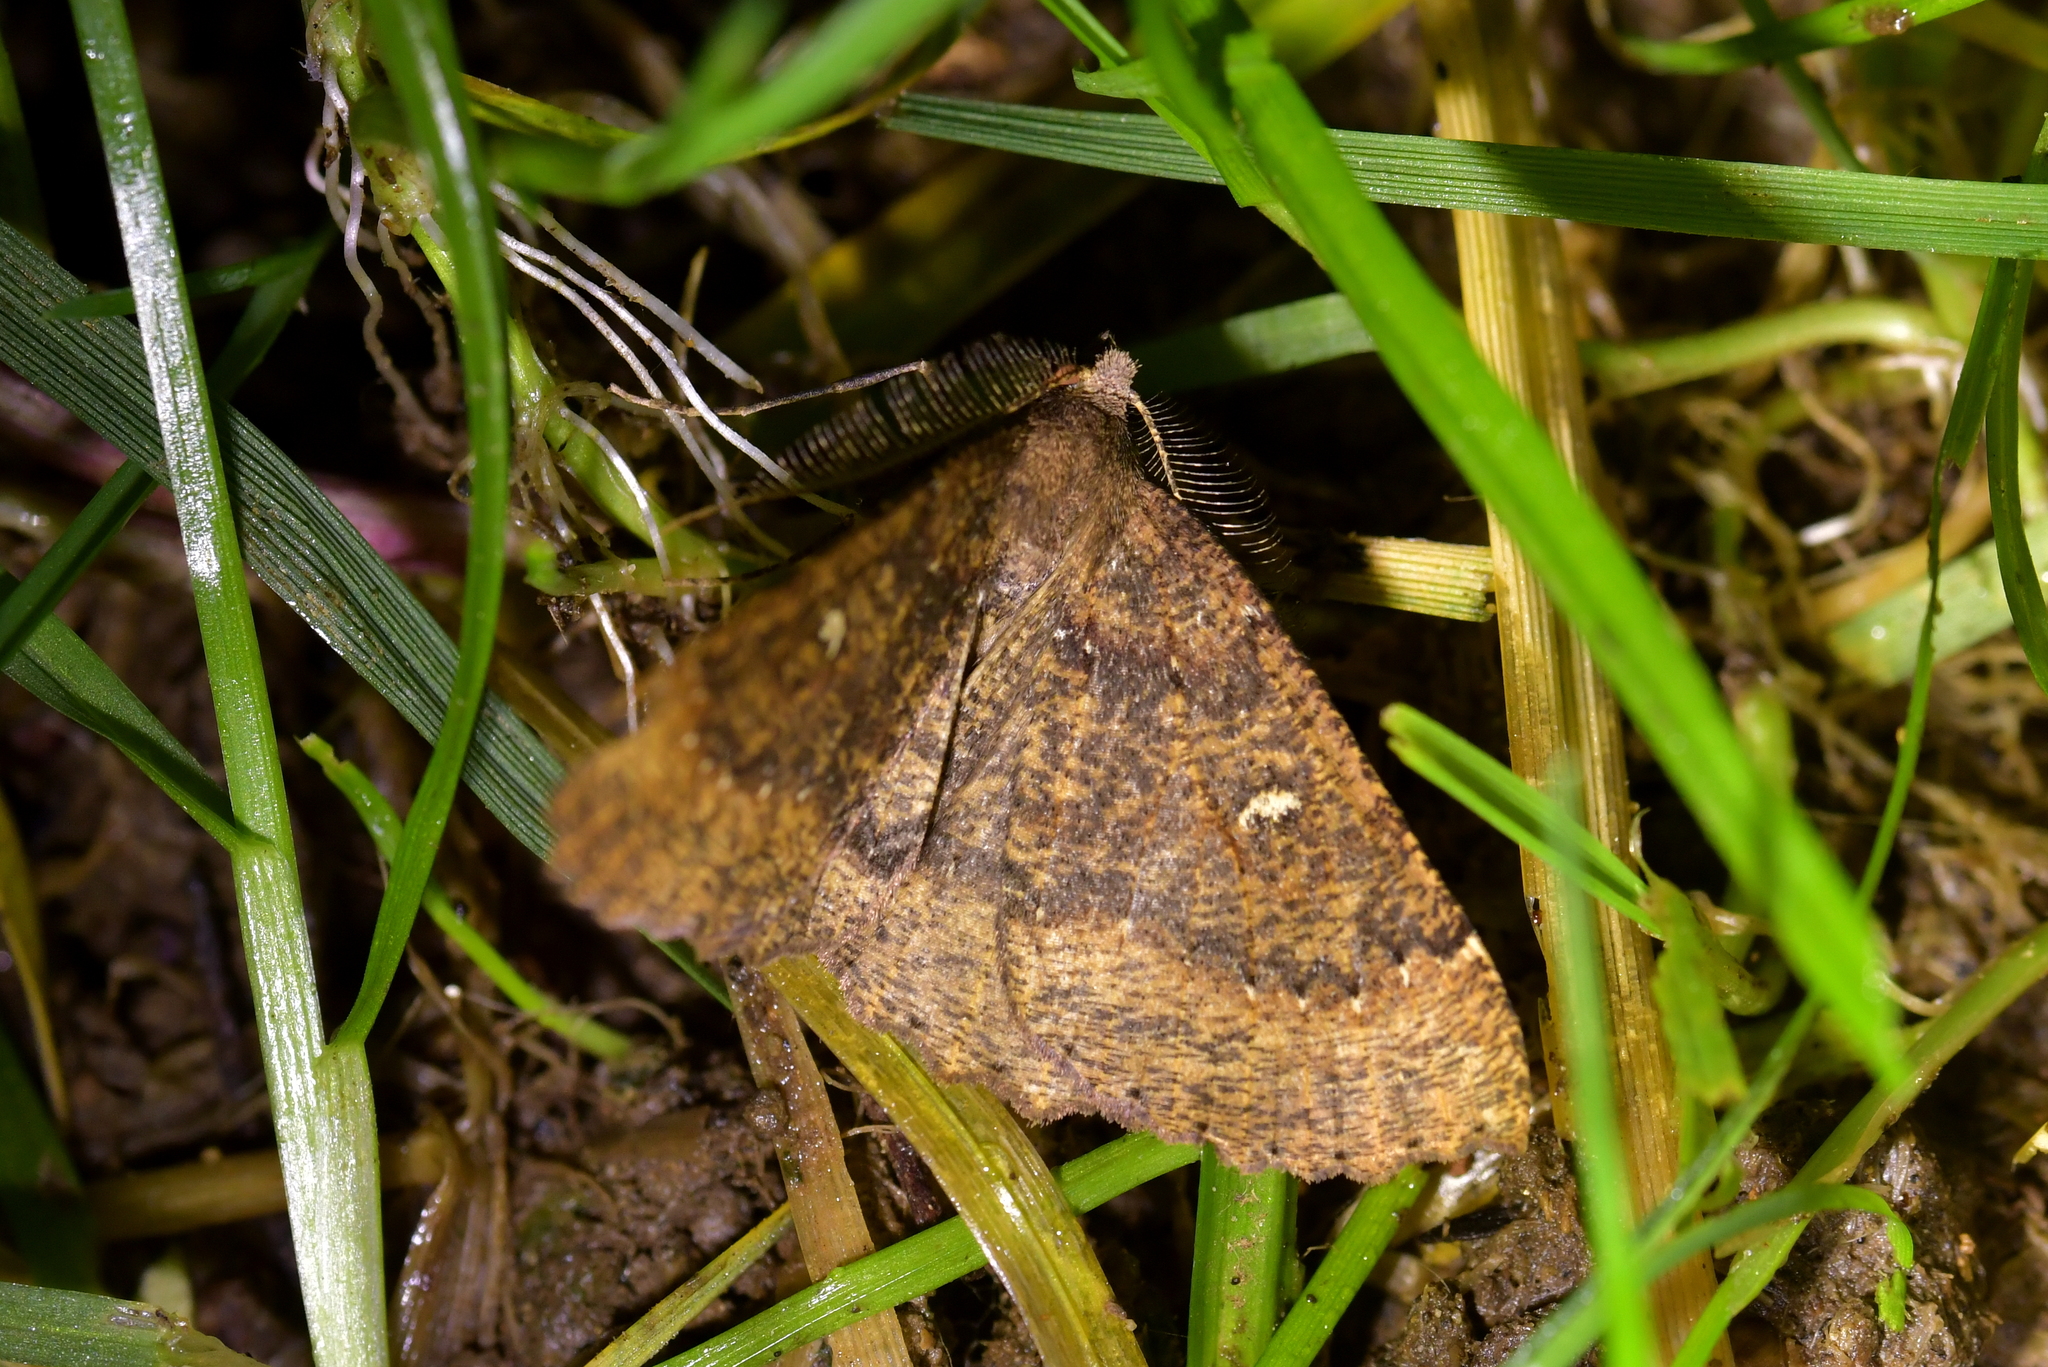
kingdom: Animalia
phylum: Arthropoda
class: Insecta
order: Lepidoptera
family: Geometridae
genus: Cleora
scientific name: Cleora scriptaria
